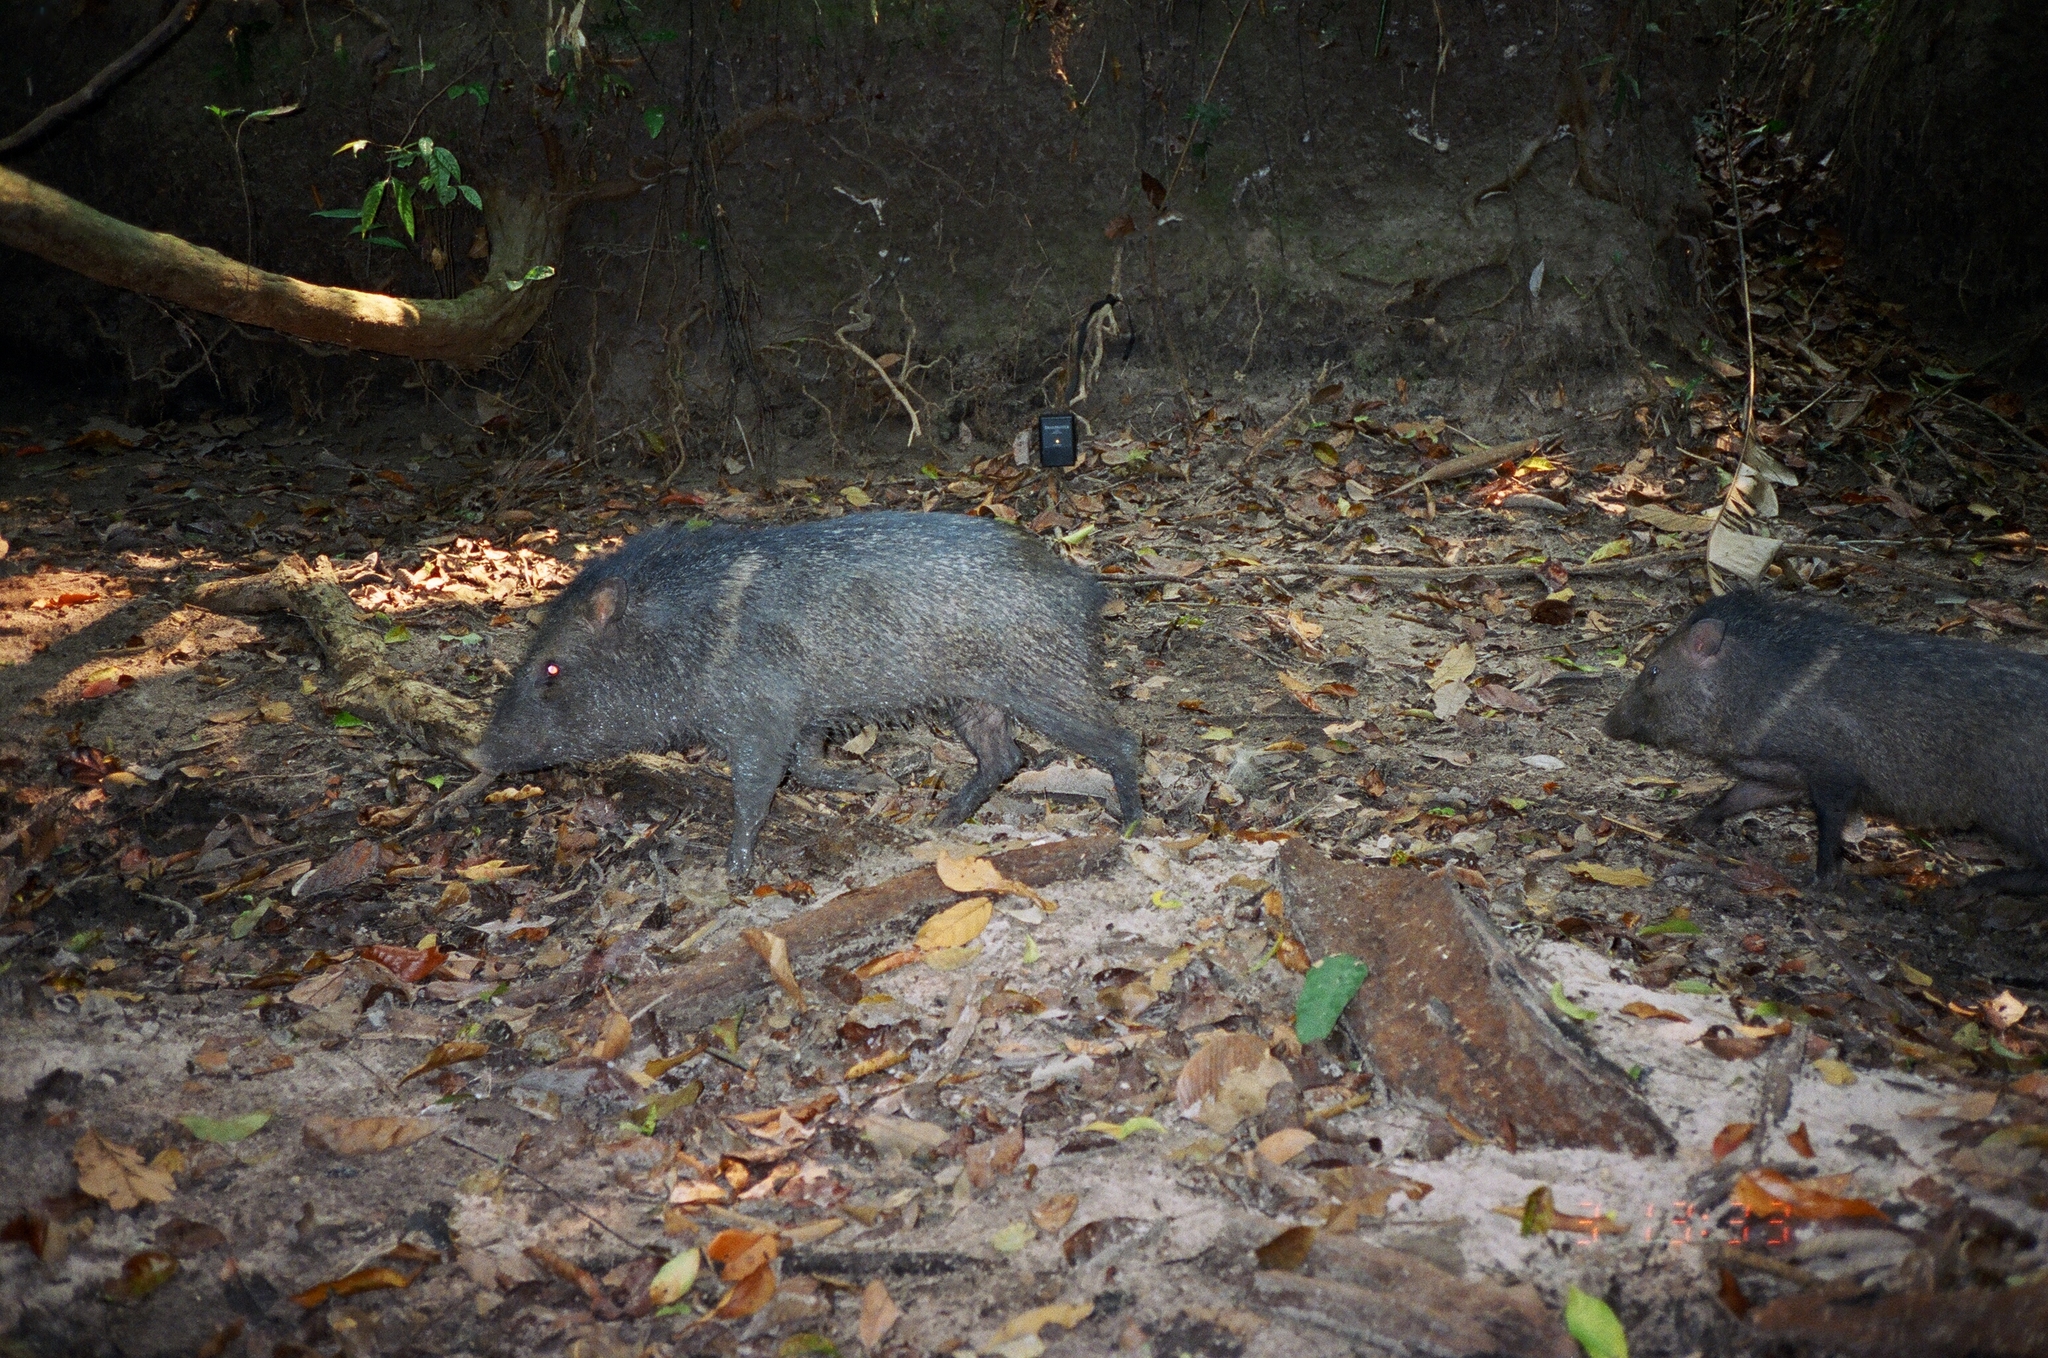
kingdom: Animalia
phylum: Chordata
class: Mammalia
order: Artiodactyla
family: Tayassuidae
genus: Pecari
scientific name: Pecari tajacu
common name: Collared peccary
